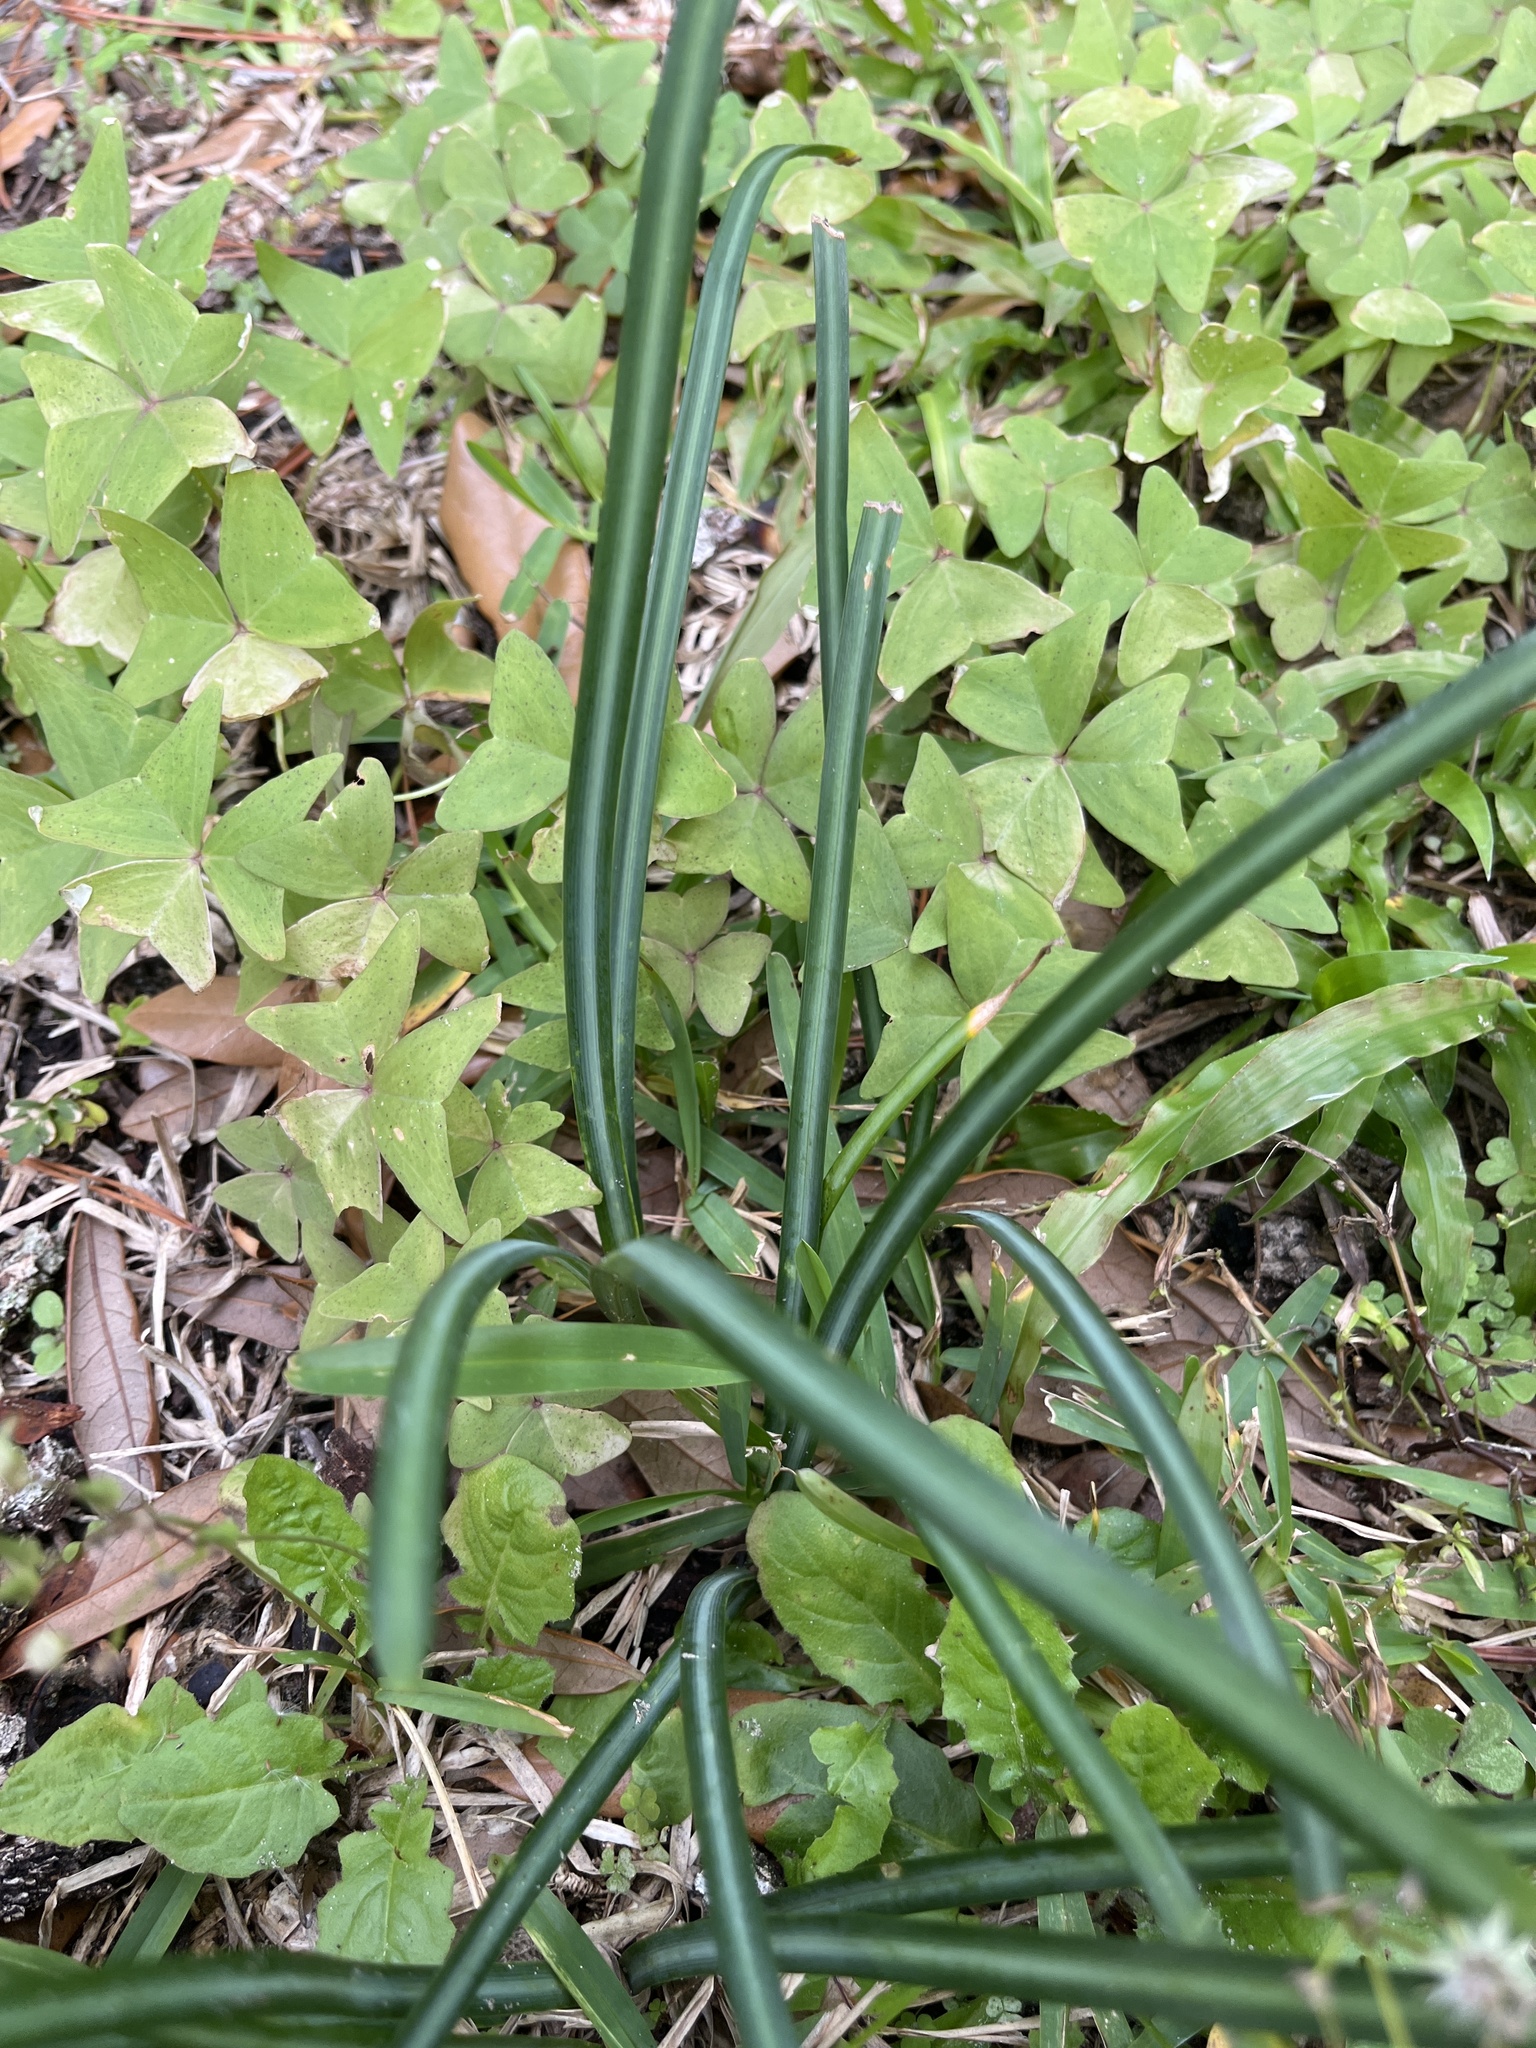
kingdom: Plantae
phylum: Tracheophyta
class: Liliopsida
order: Asparagales
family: Amaryllidaceae
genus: Lycoris
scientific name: Lycoris radiata
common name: Red spider lily
